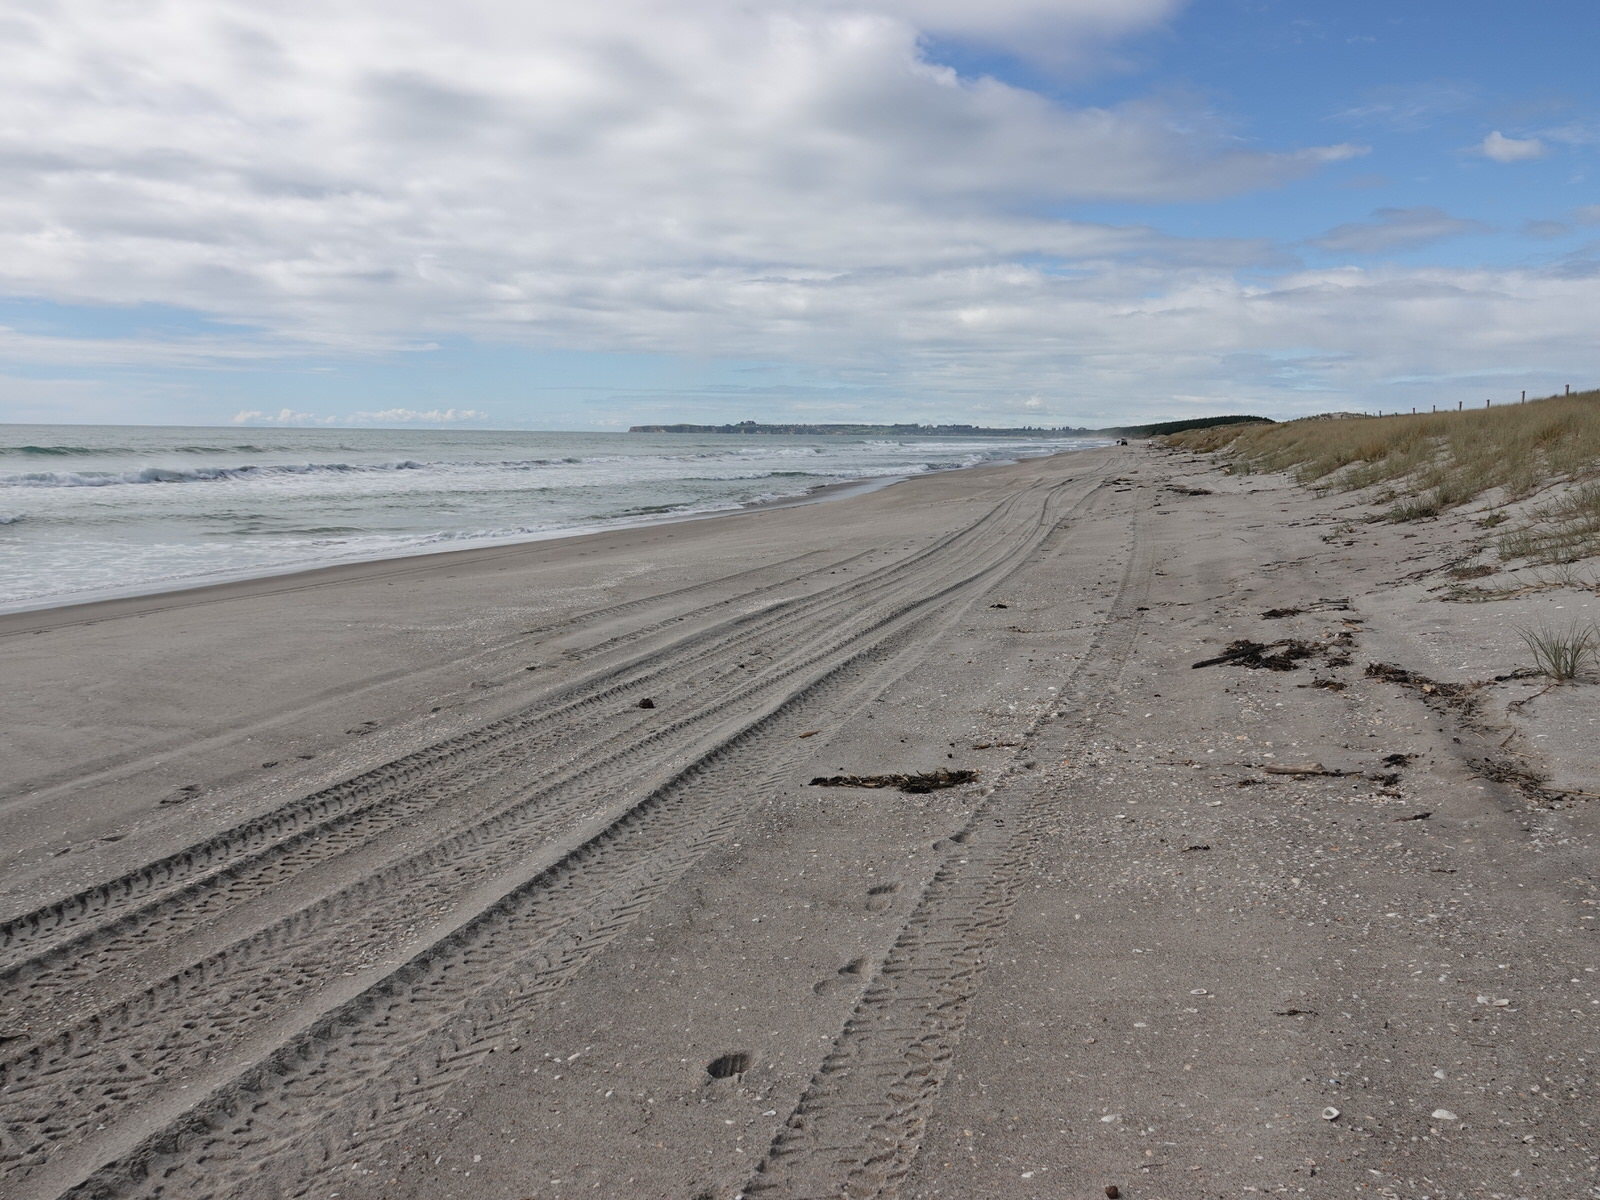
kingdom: Animalia
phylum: Mollusca
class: Bivalvia
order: Arcida
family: Glycymerididae
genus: Glycymeris
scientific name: Glycymeris modesta
